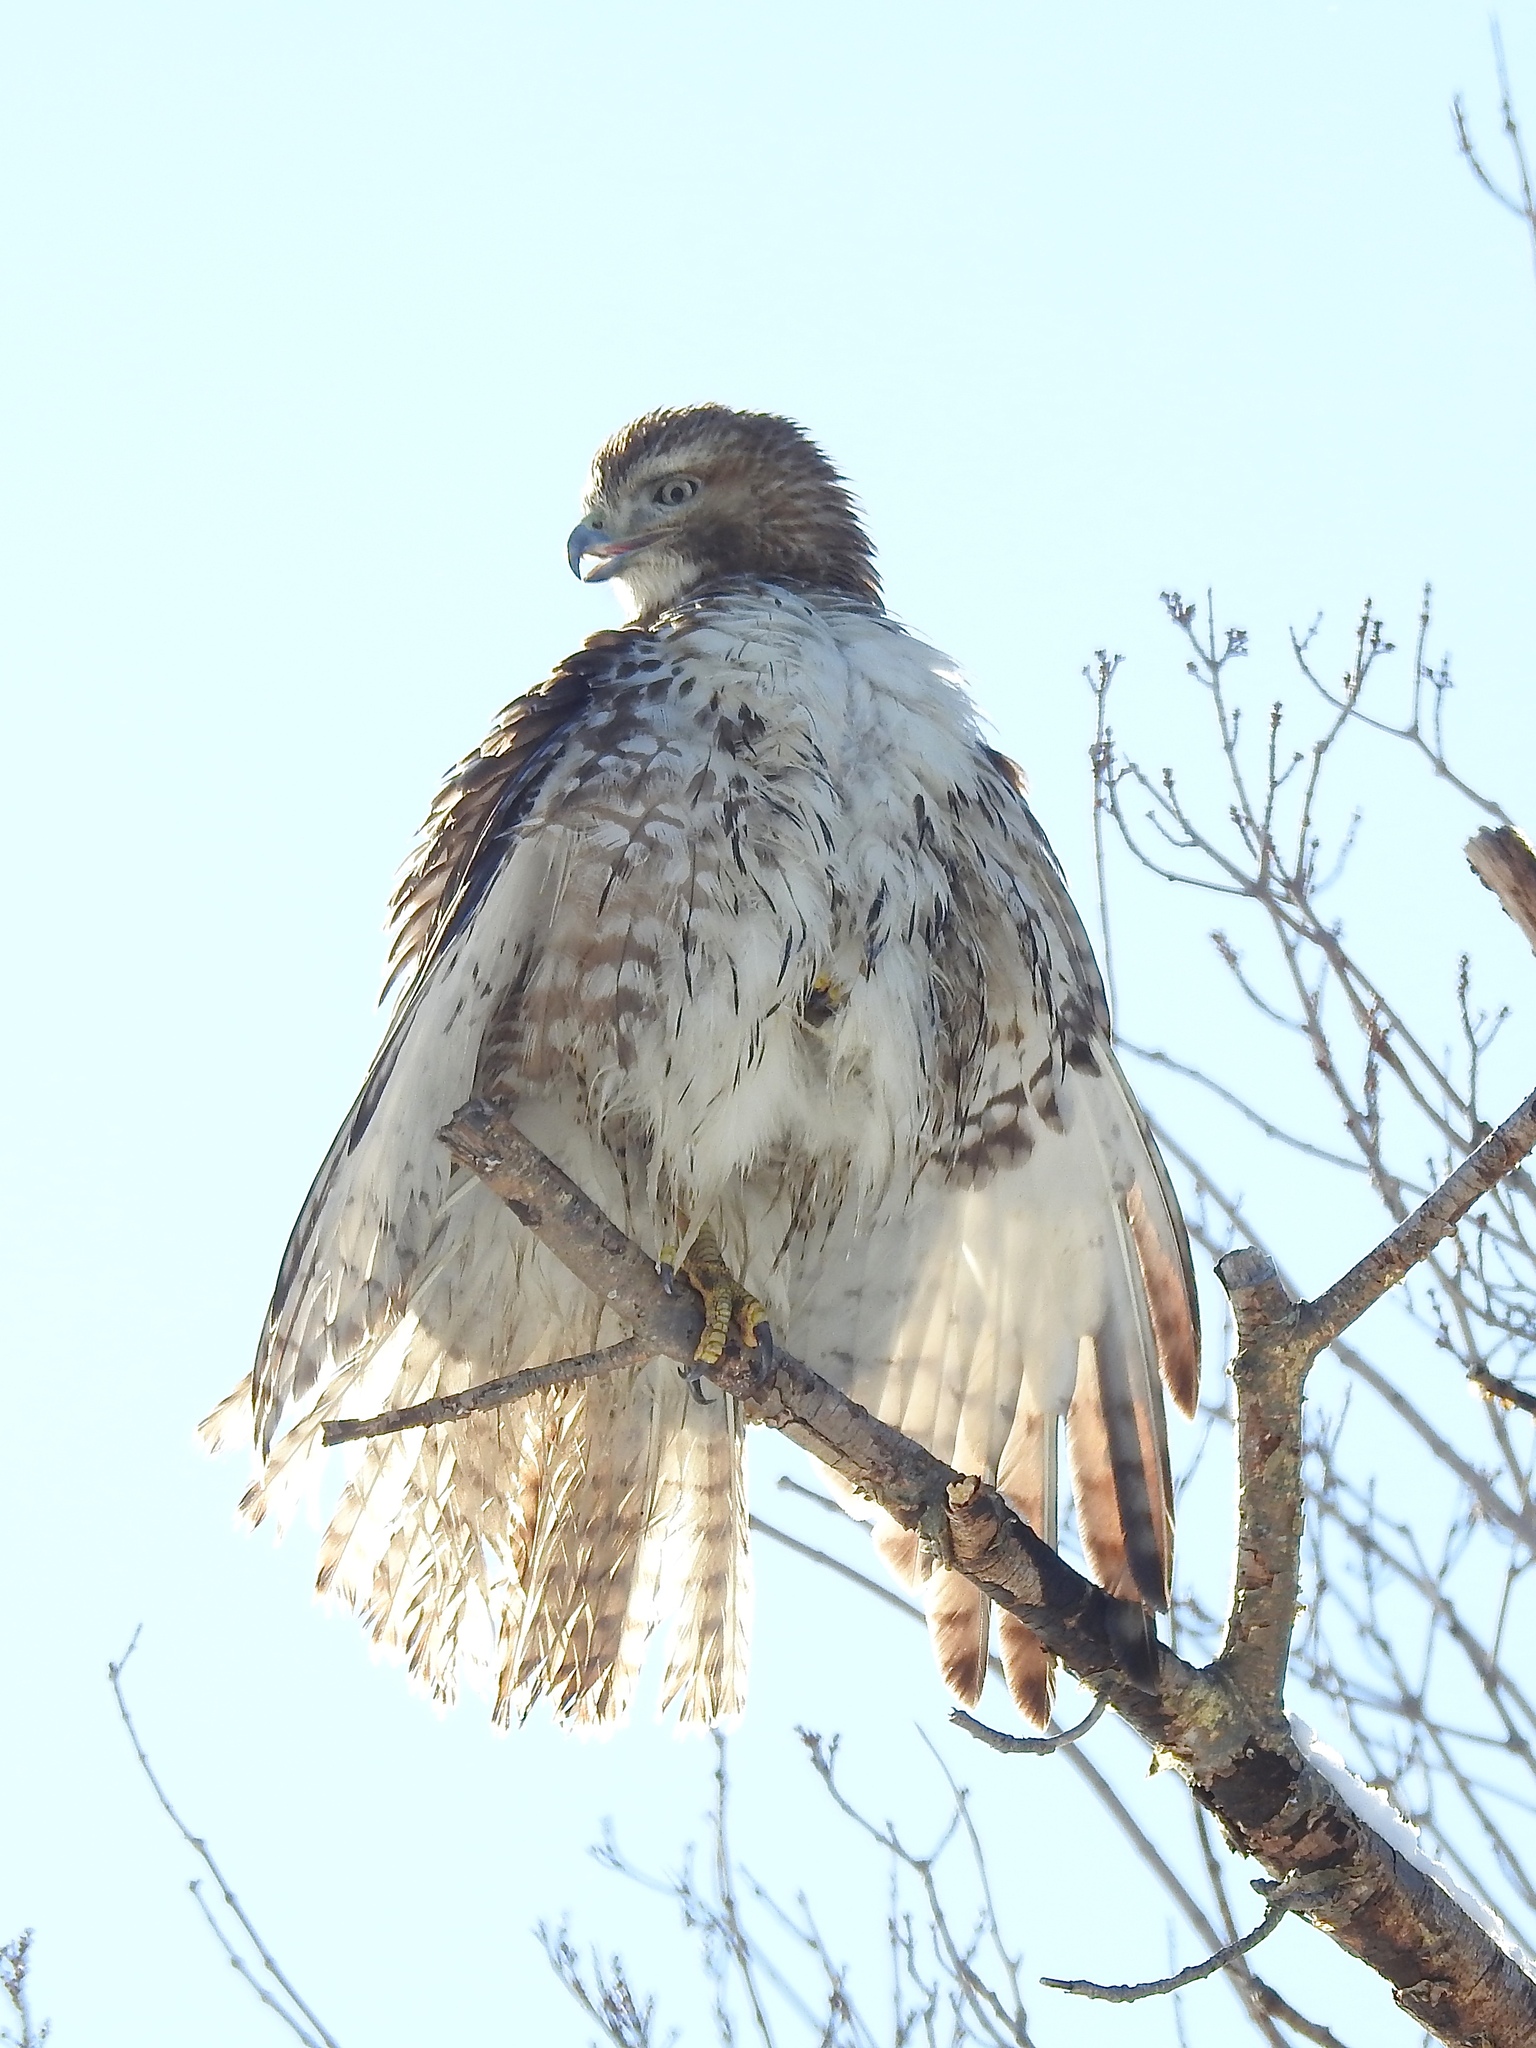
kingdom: Animalia
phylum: Chordata
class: Aves
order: Accipitriformes
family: Accipitridae
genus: Buteo
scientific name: Buteo jamaicensis
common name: Red-tailed hawk
